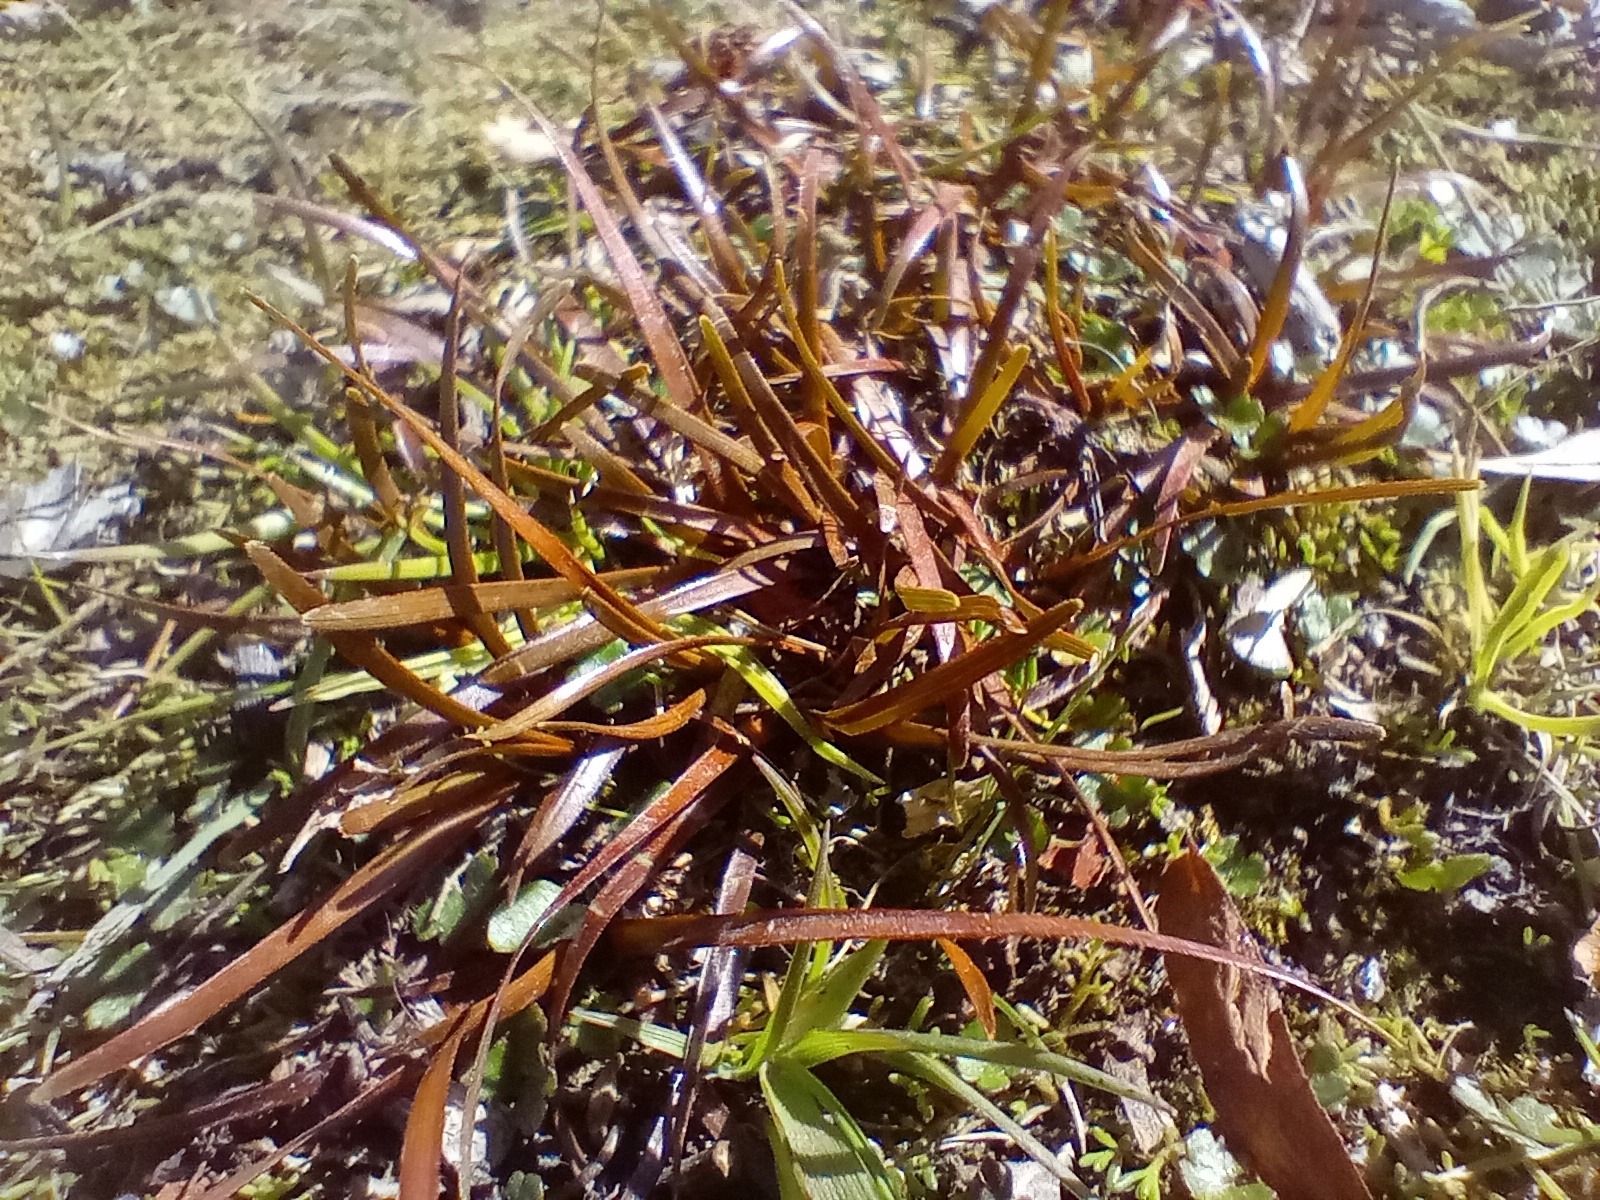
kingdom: Plantae
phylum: Tracheophyta
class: Liliopsida
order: Poales
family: Cyperaceae
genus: Carex
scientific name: Carex rubicunda
